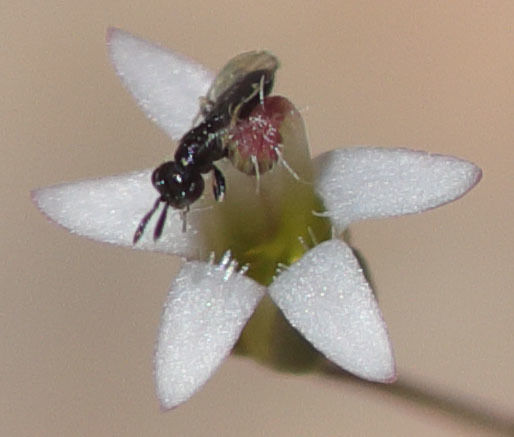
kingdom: Plantae
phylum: Tracheophyta
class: Magnoliopsida
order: Asterales
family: Campanulaceae
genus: Nemacladus
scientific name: Nemacladus secundiflorus
